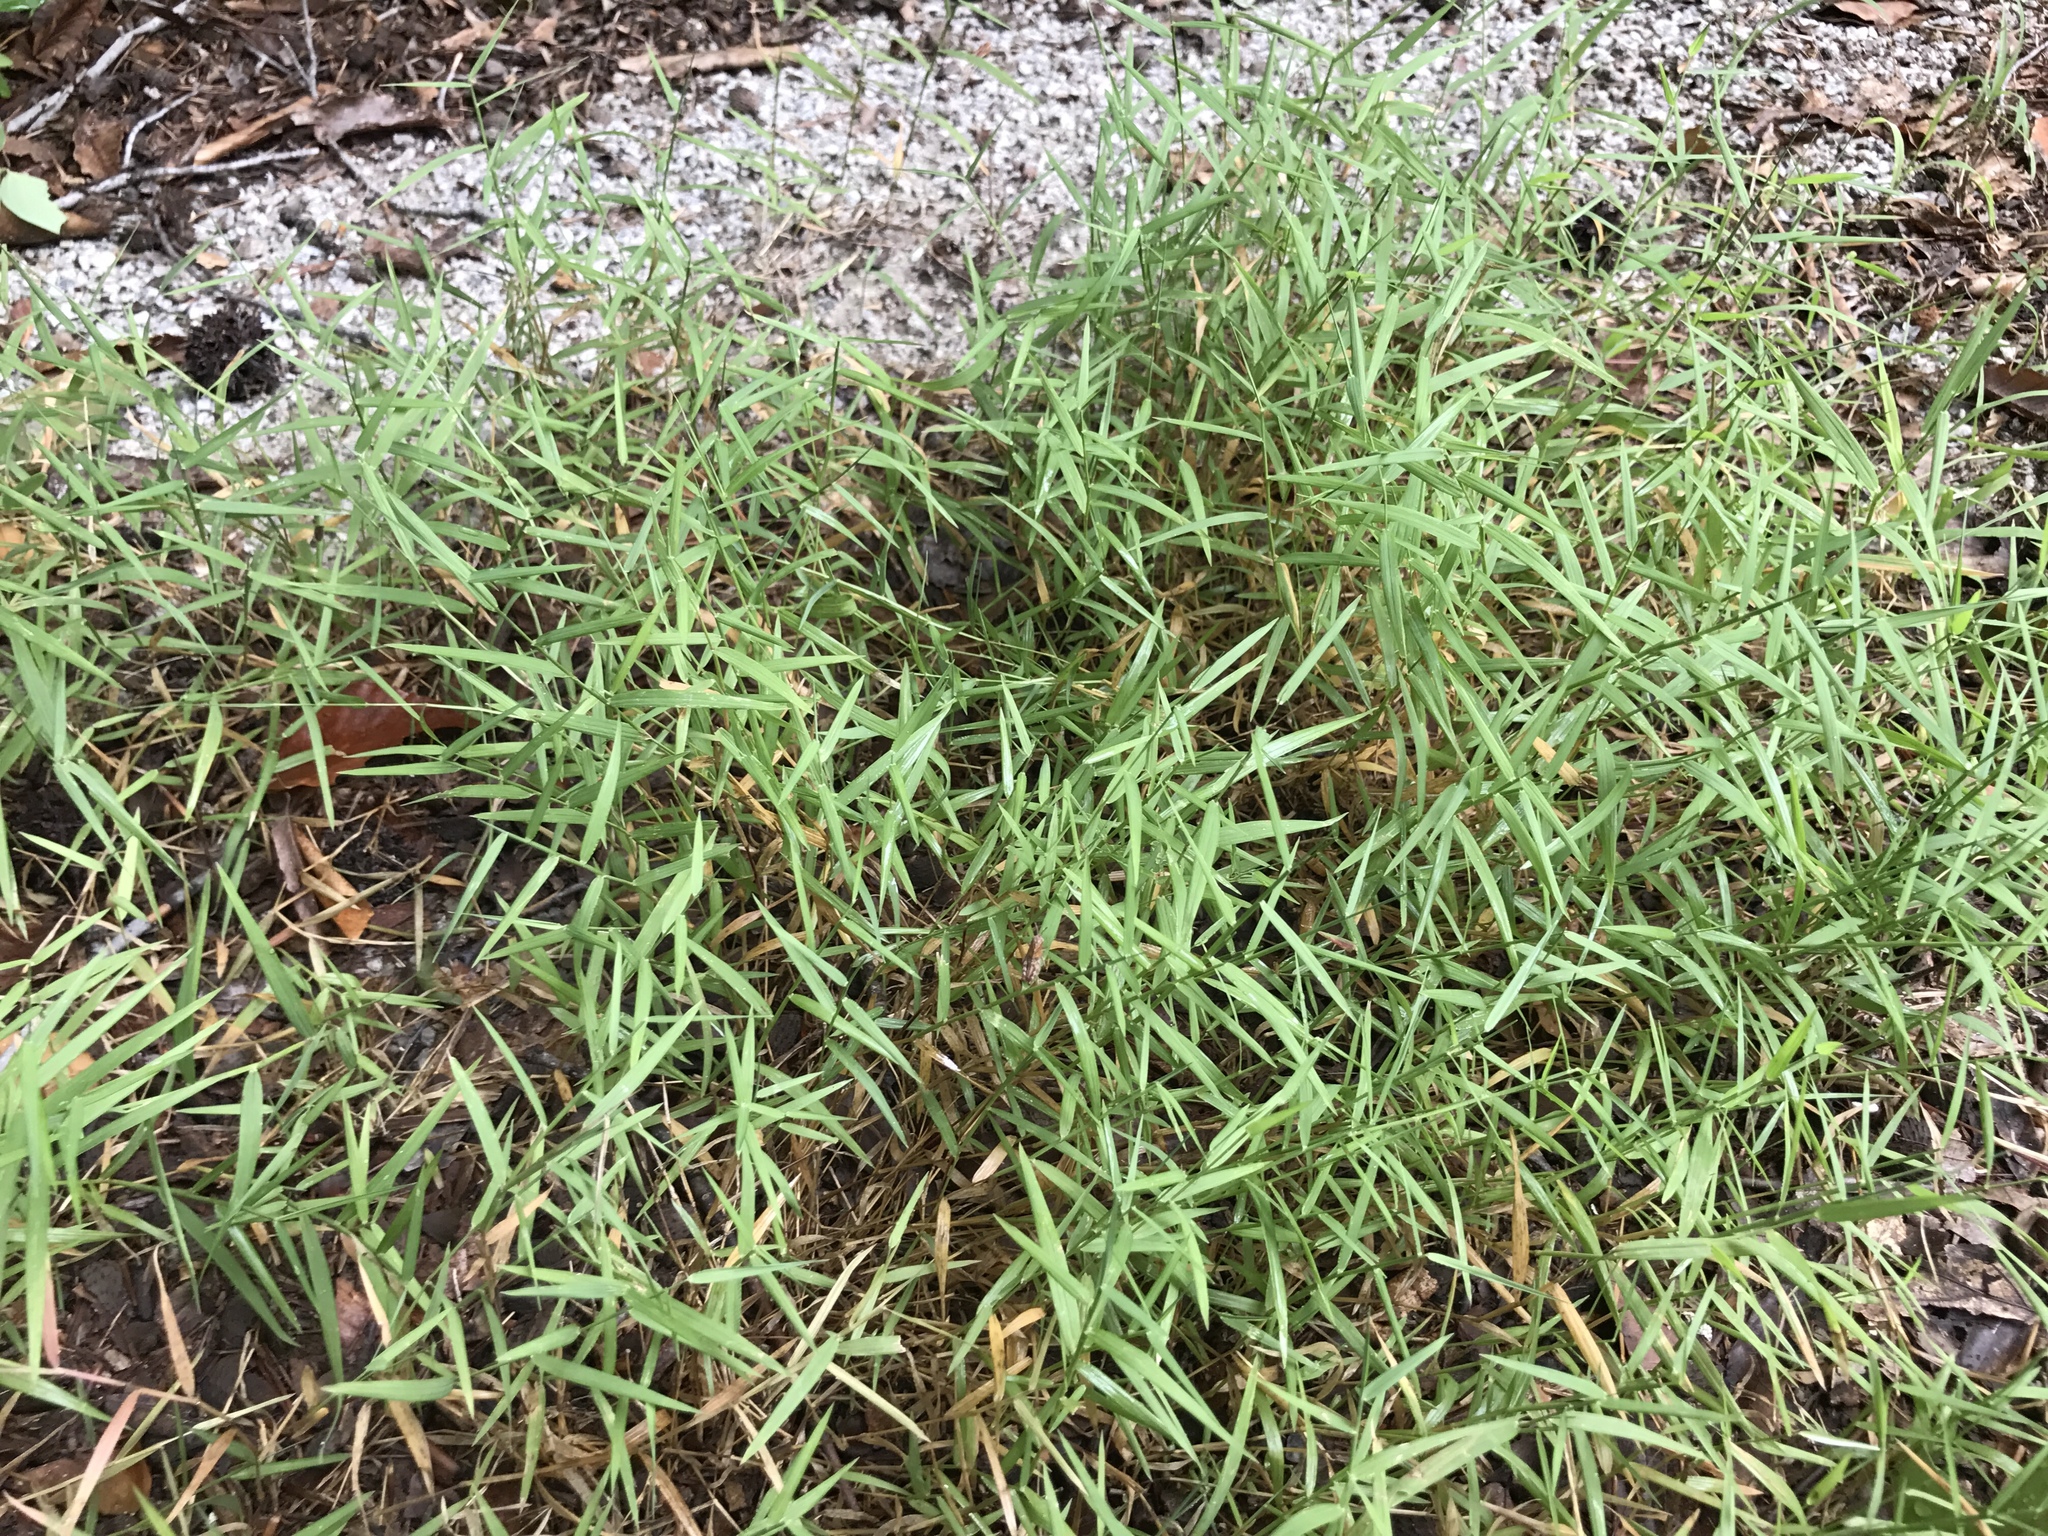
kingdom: Plantae
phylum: Tracheophyta
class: Liliopsida
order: Poales
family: Poaceae
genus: Muhlenbergia
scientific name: Muhlenbergia schreberi
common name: Nimblewill
